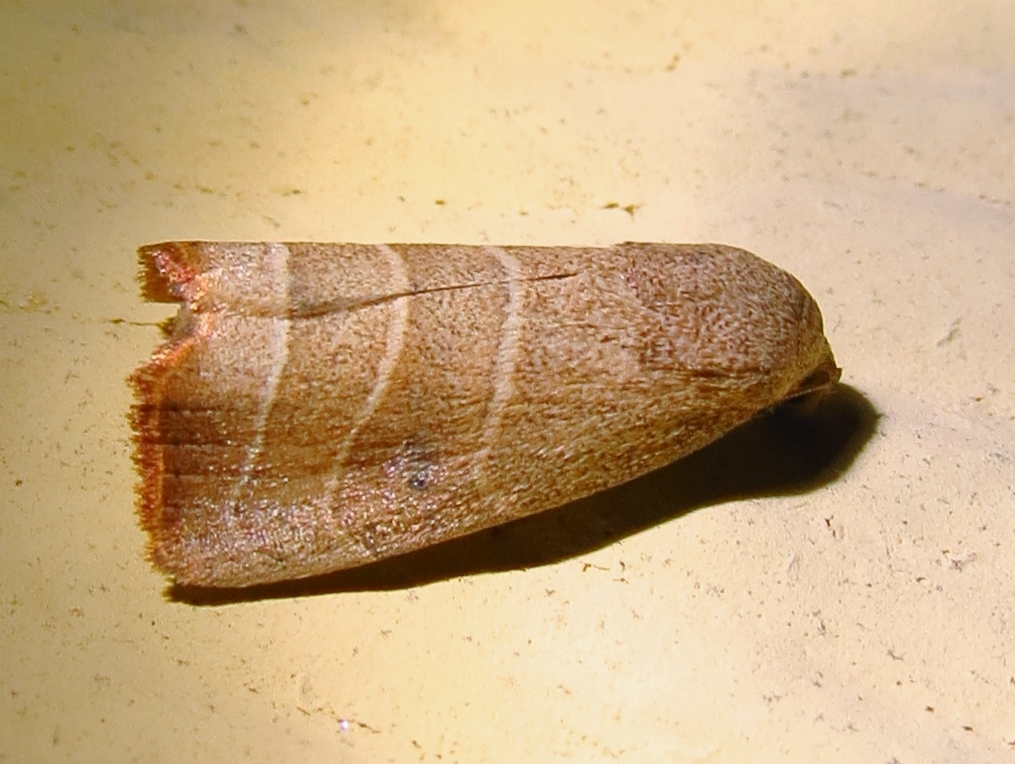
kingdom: Animalia
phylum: Arthropoda
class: Insecta
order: Lepidoptera
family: Noctuidae
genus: Bagisara
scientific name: Bagisara repanda
